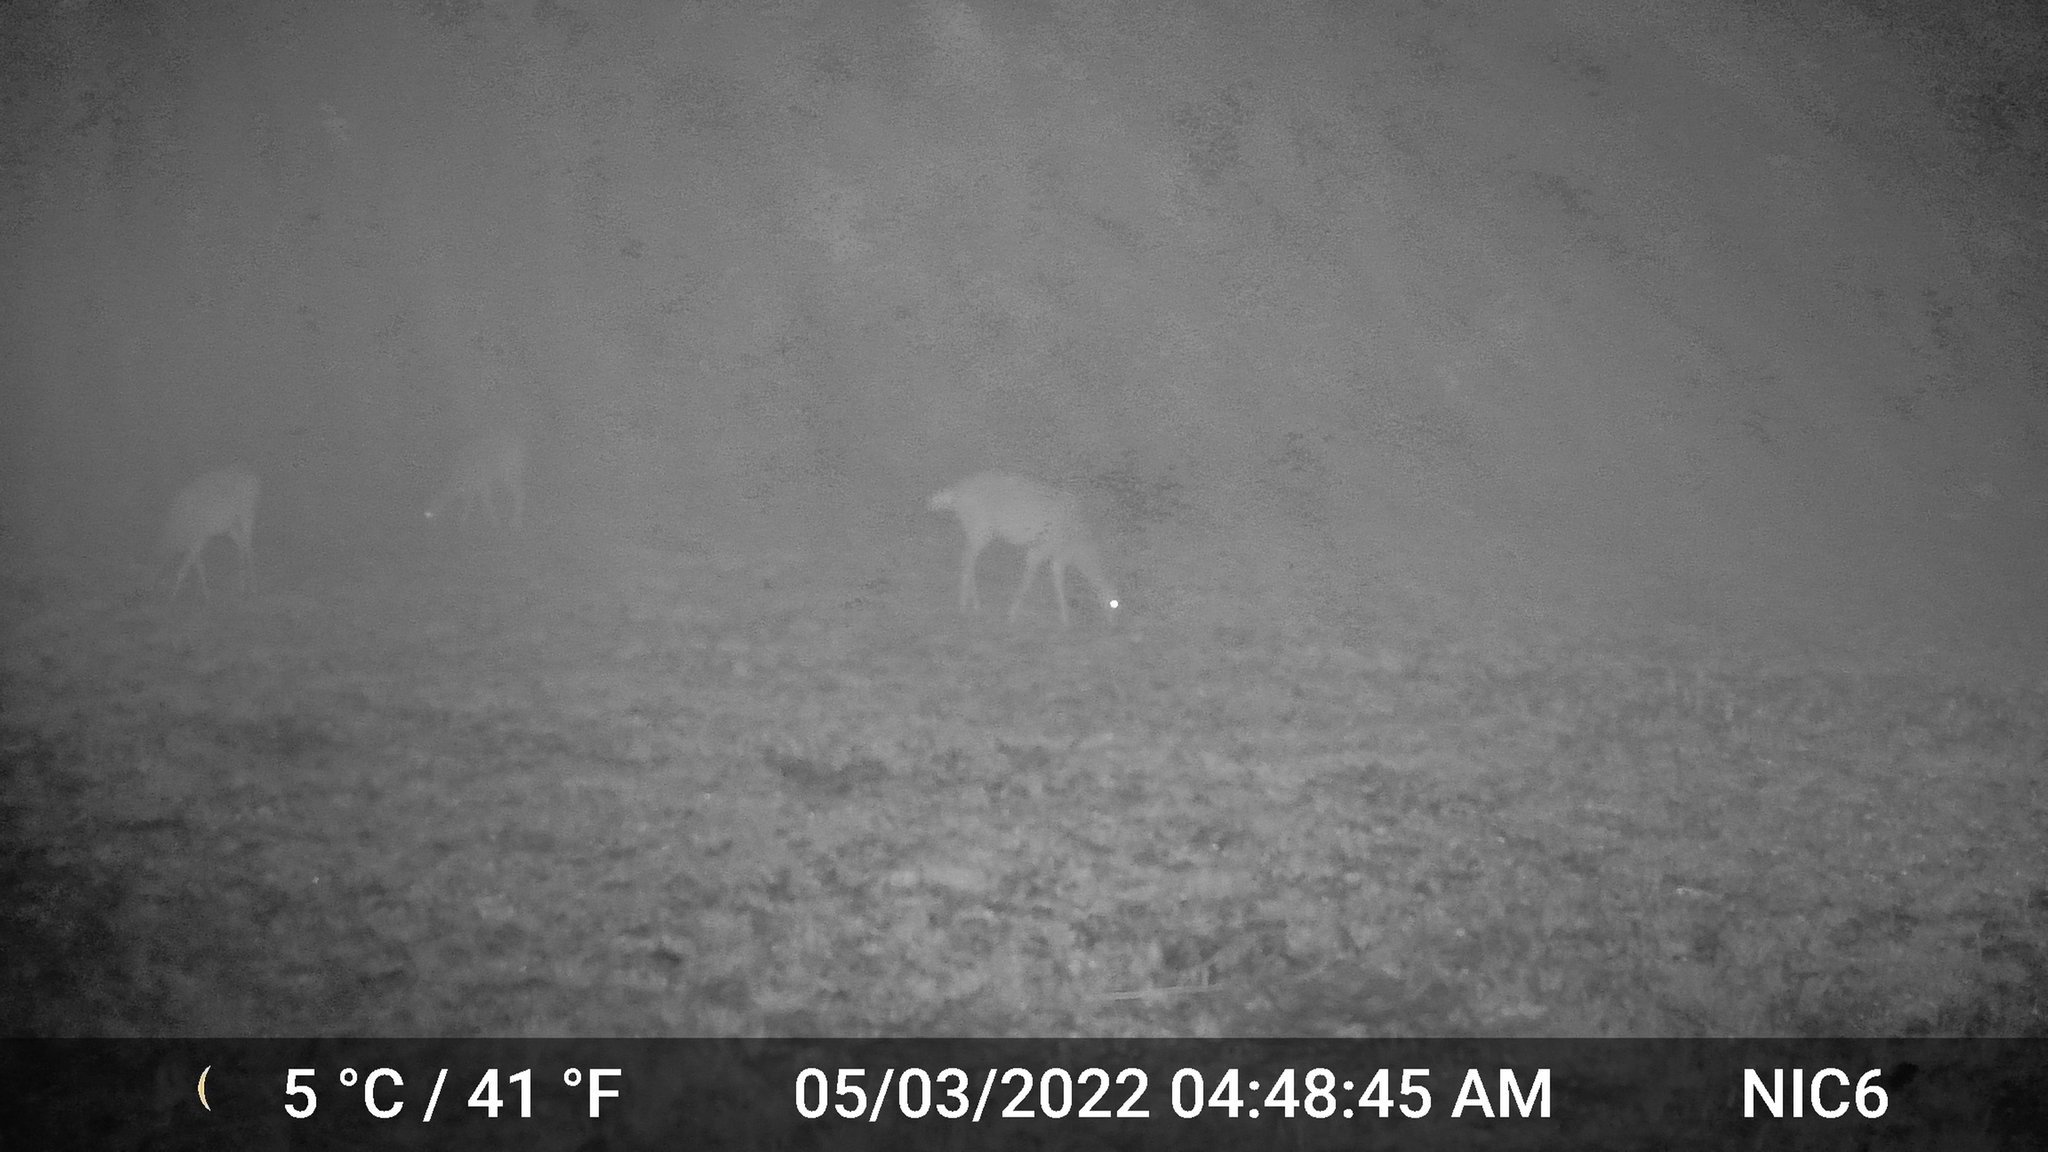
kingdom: Animalia
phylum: Chordata
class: Mammalia
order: Artiodactyla
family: Cervidae
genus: Odocoileus
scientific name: Odocoileus virginianus
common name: White-tailed deer
